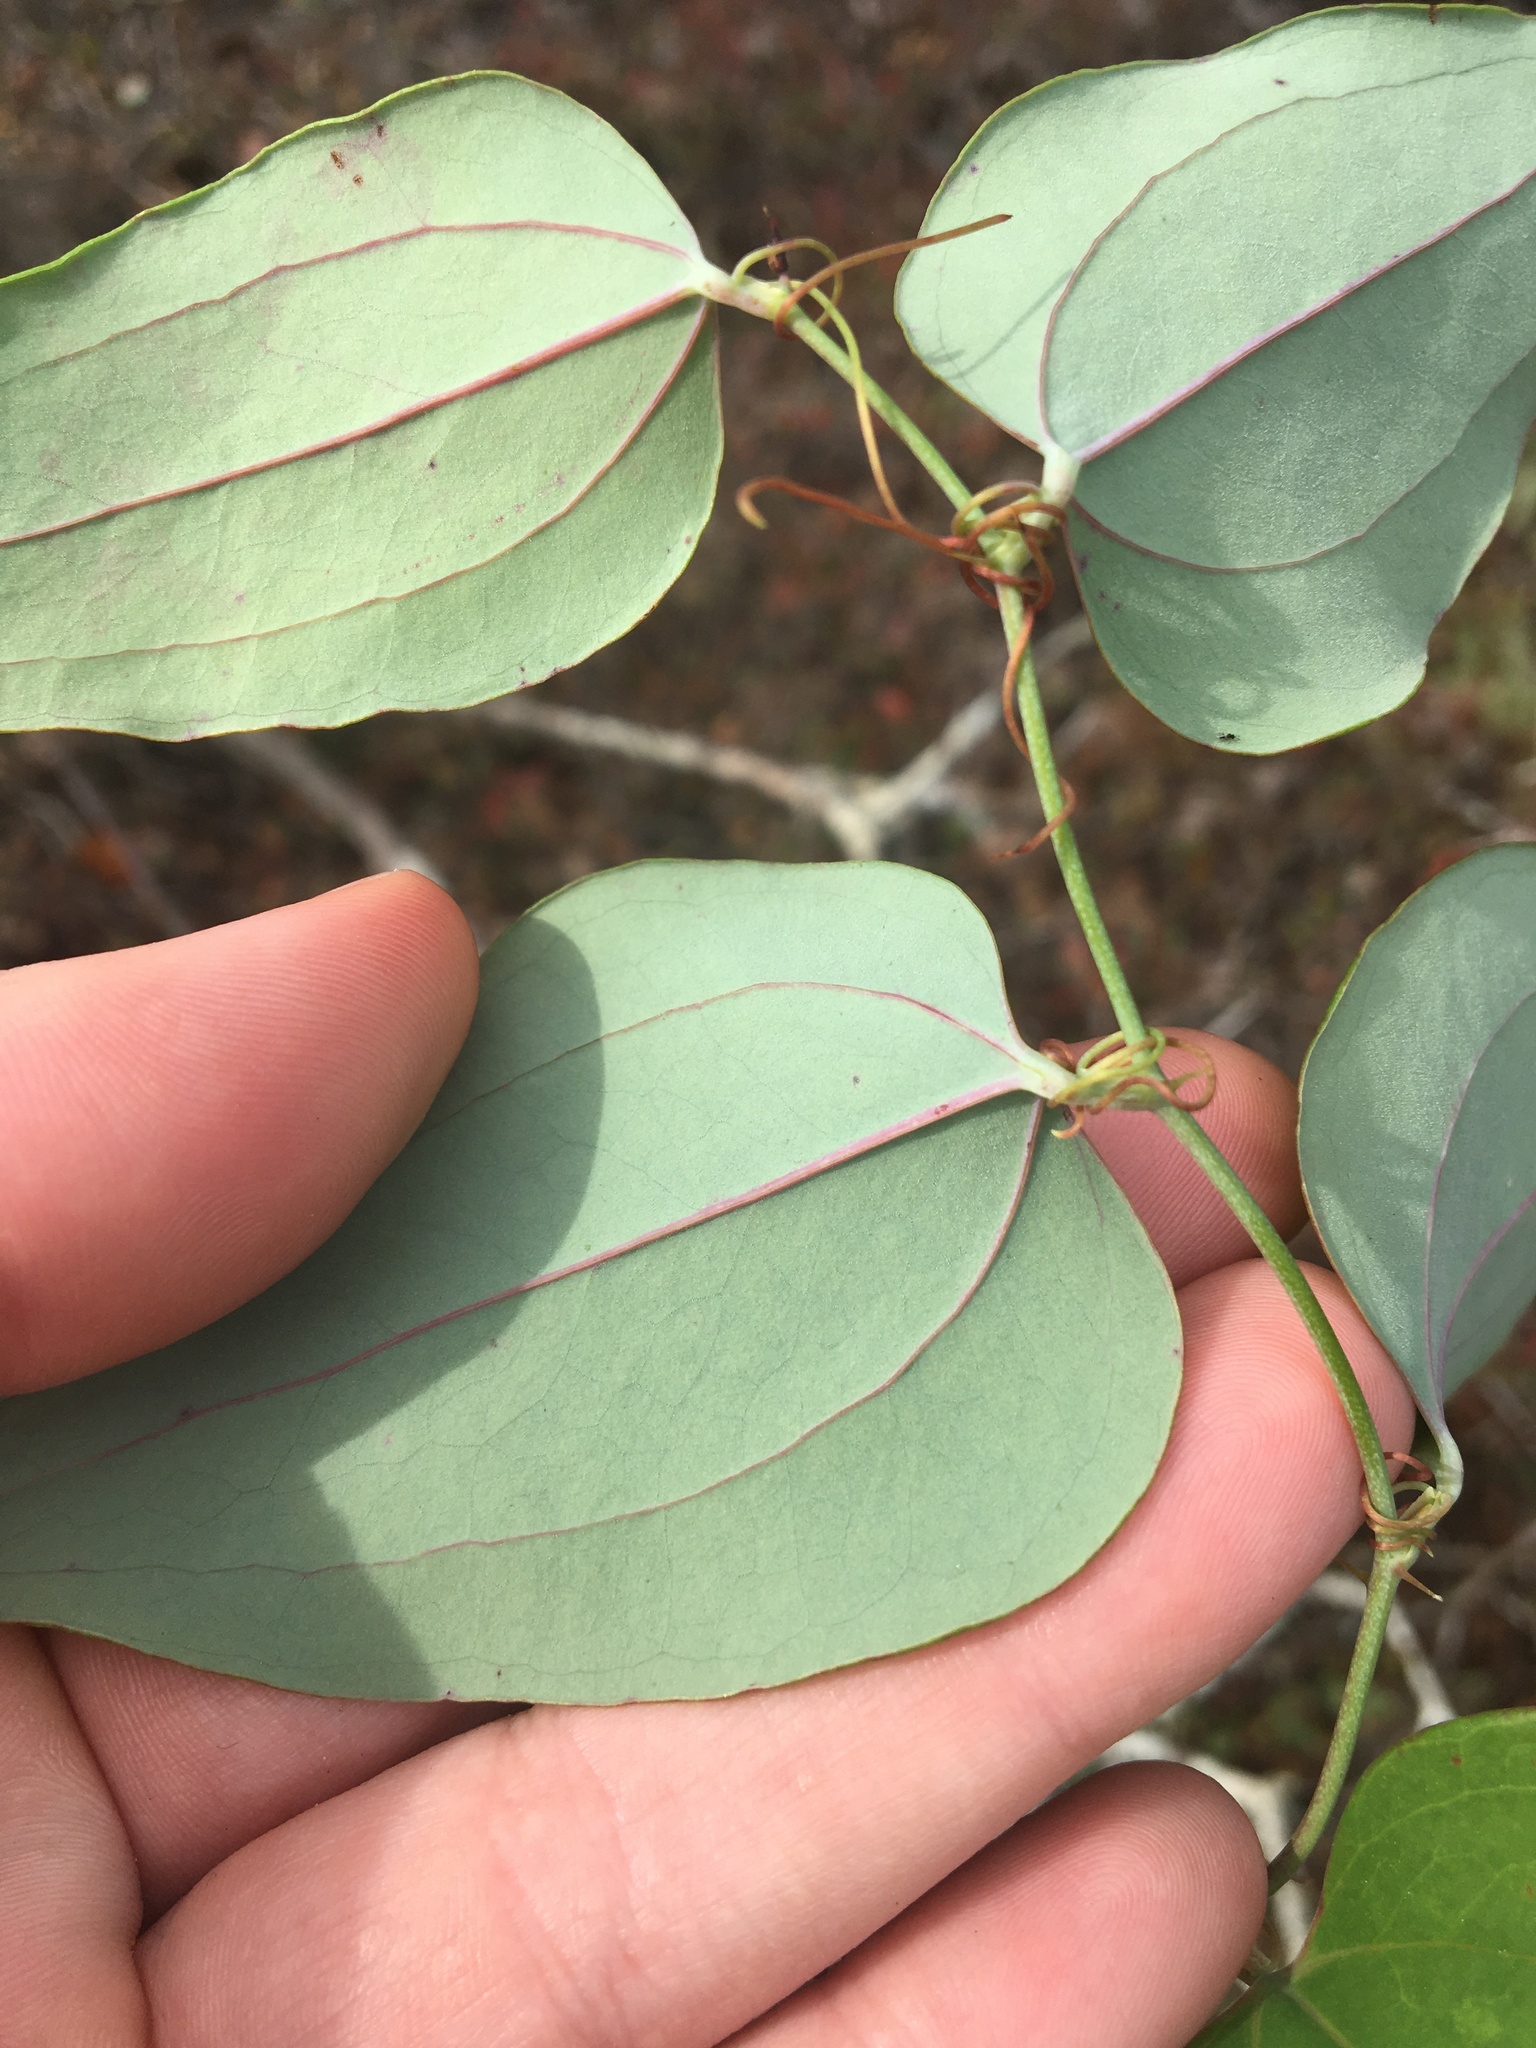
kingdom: Plantae
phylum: Tracheophyta
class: Liliopsida
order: Liliales
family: Smilacaceae
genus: Smilax
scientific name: Smilax glauca
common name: Cat greenbrier
